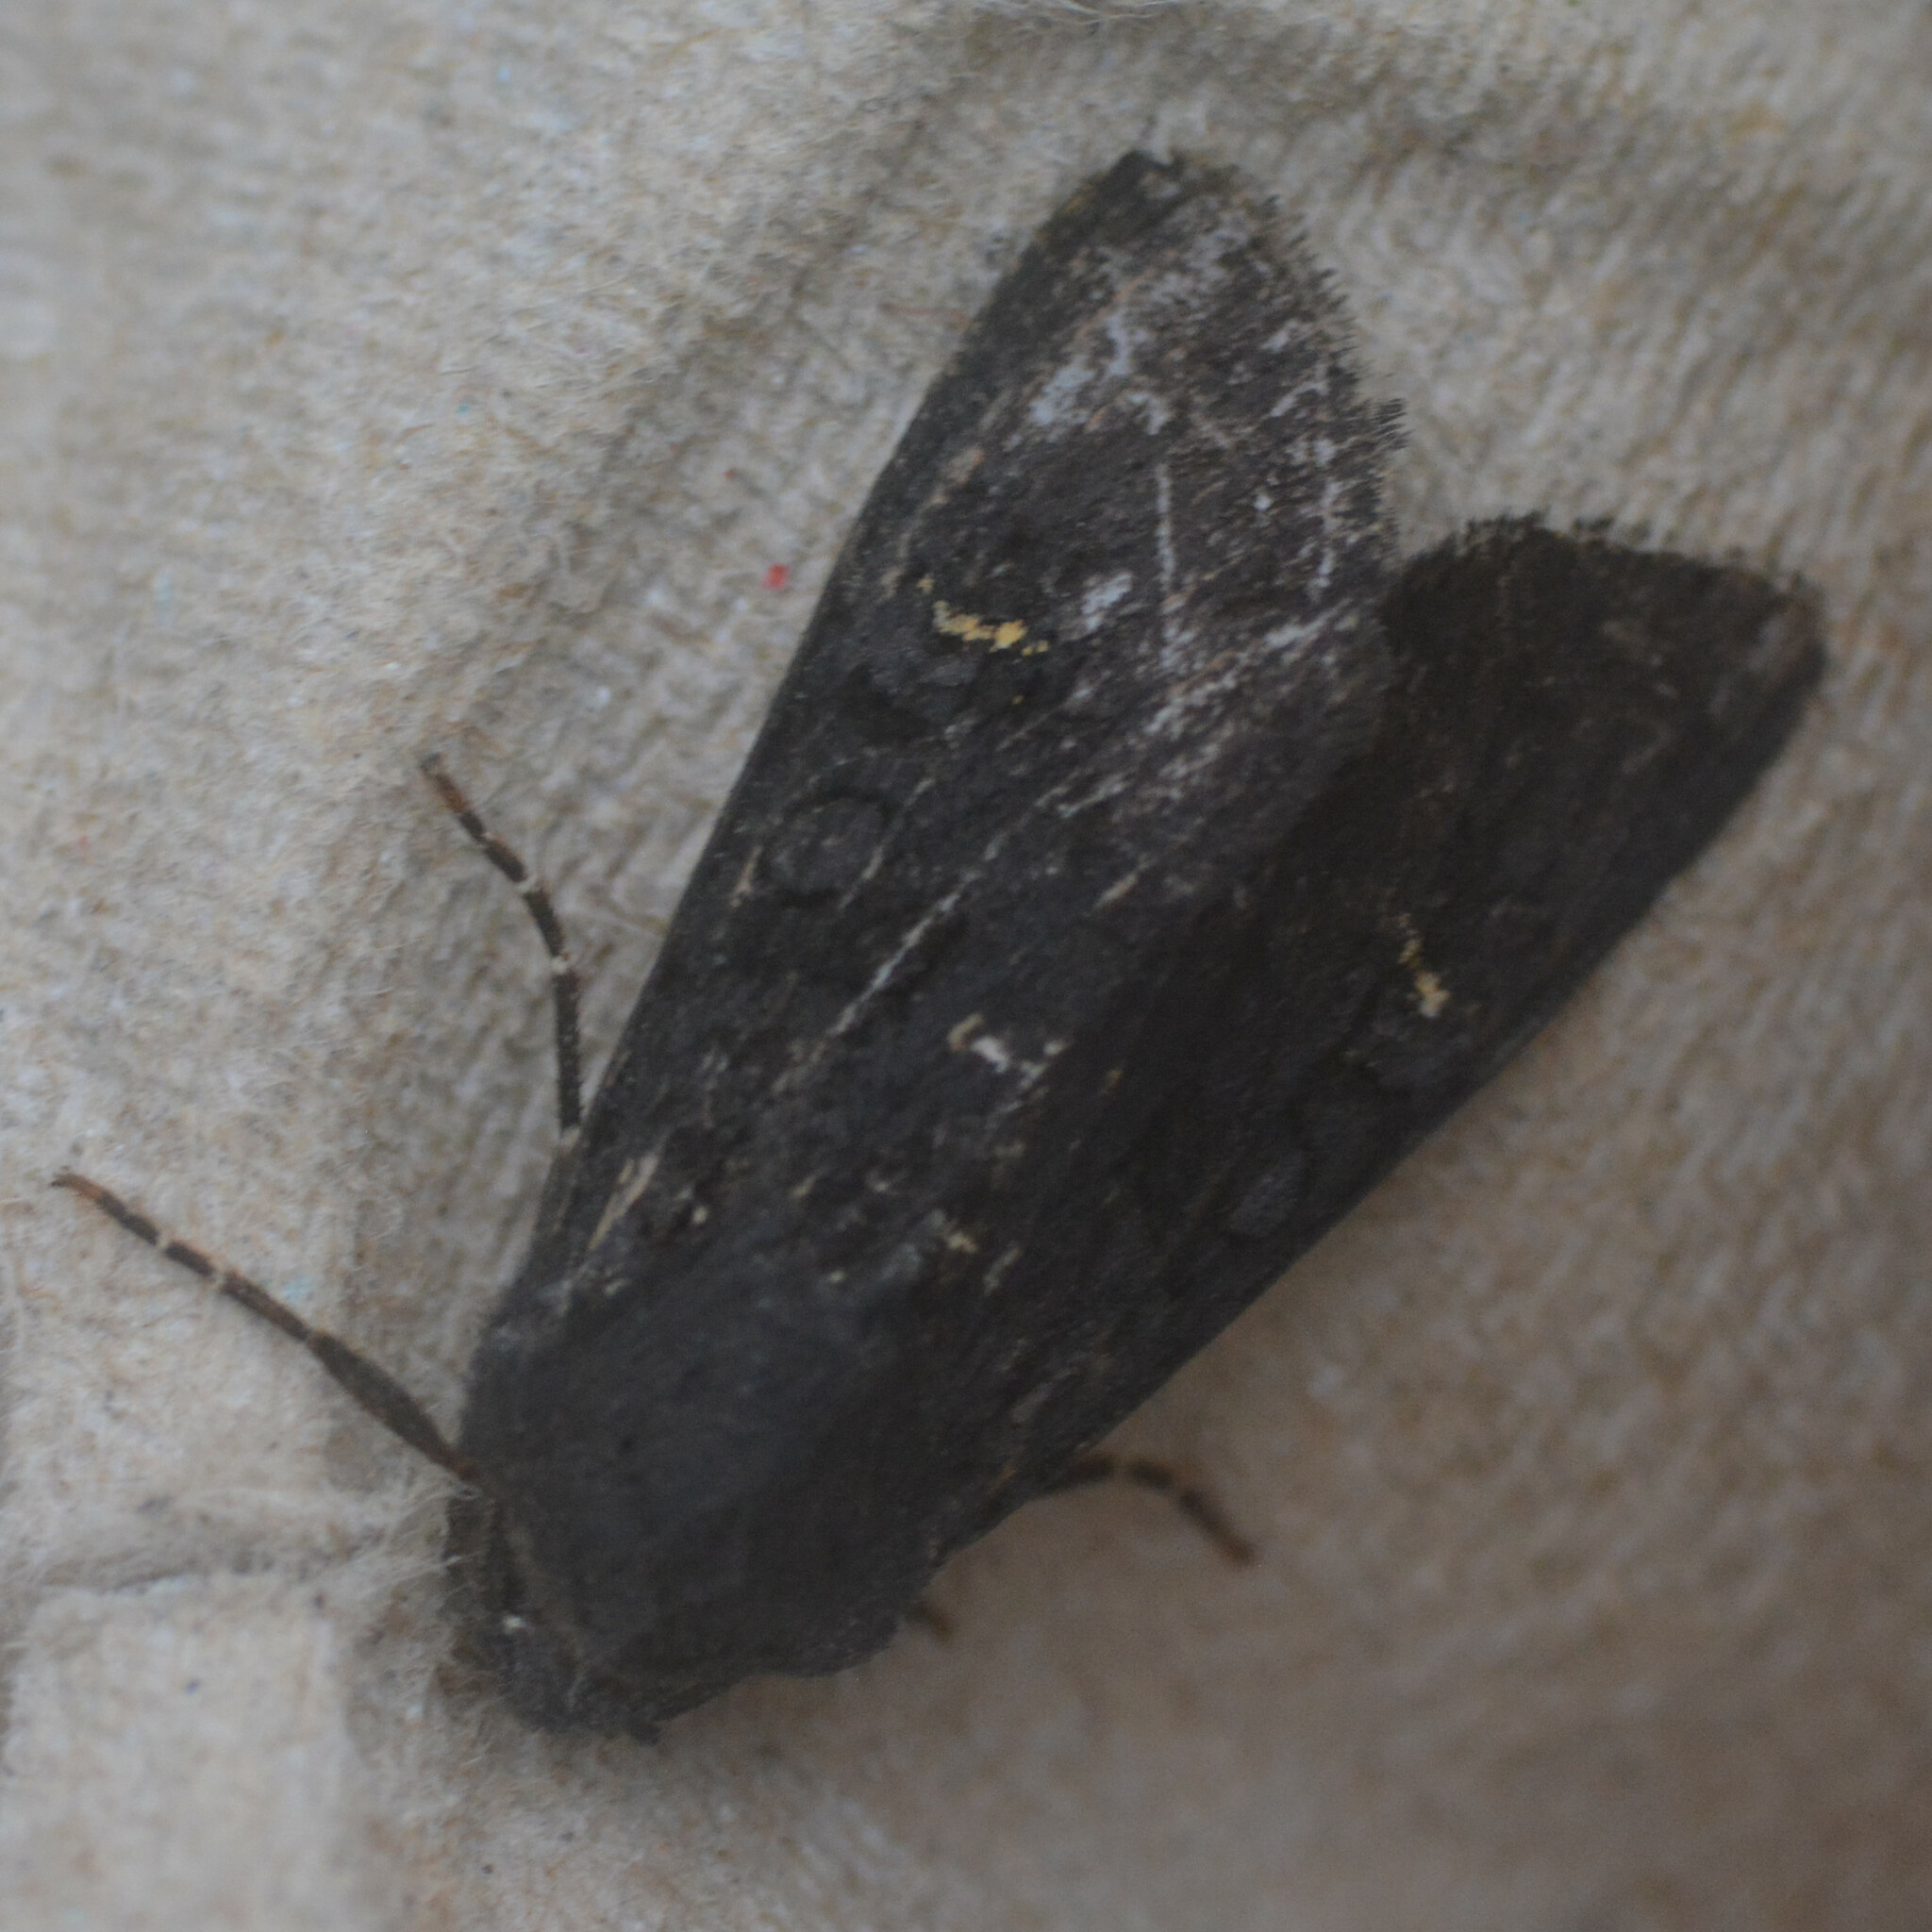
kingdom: Animalia
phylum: Arthropoda
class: Insecta
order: Lepidoptera
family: Noctuidae
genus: Aporophyla
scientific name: Aporophyla nigra
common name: Black rustic
